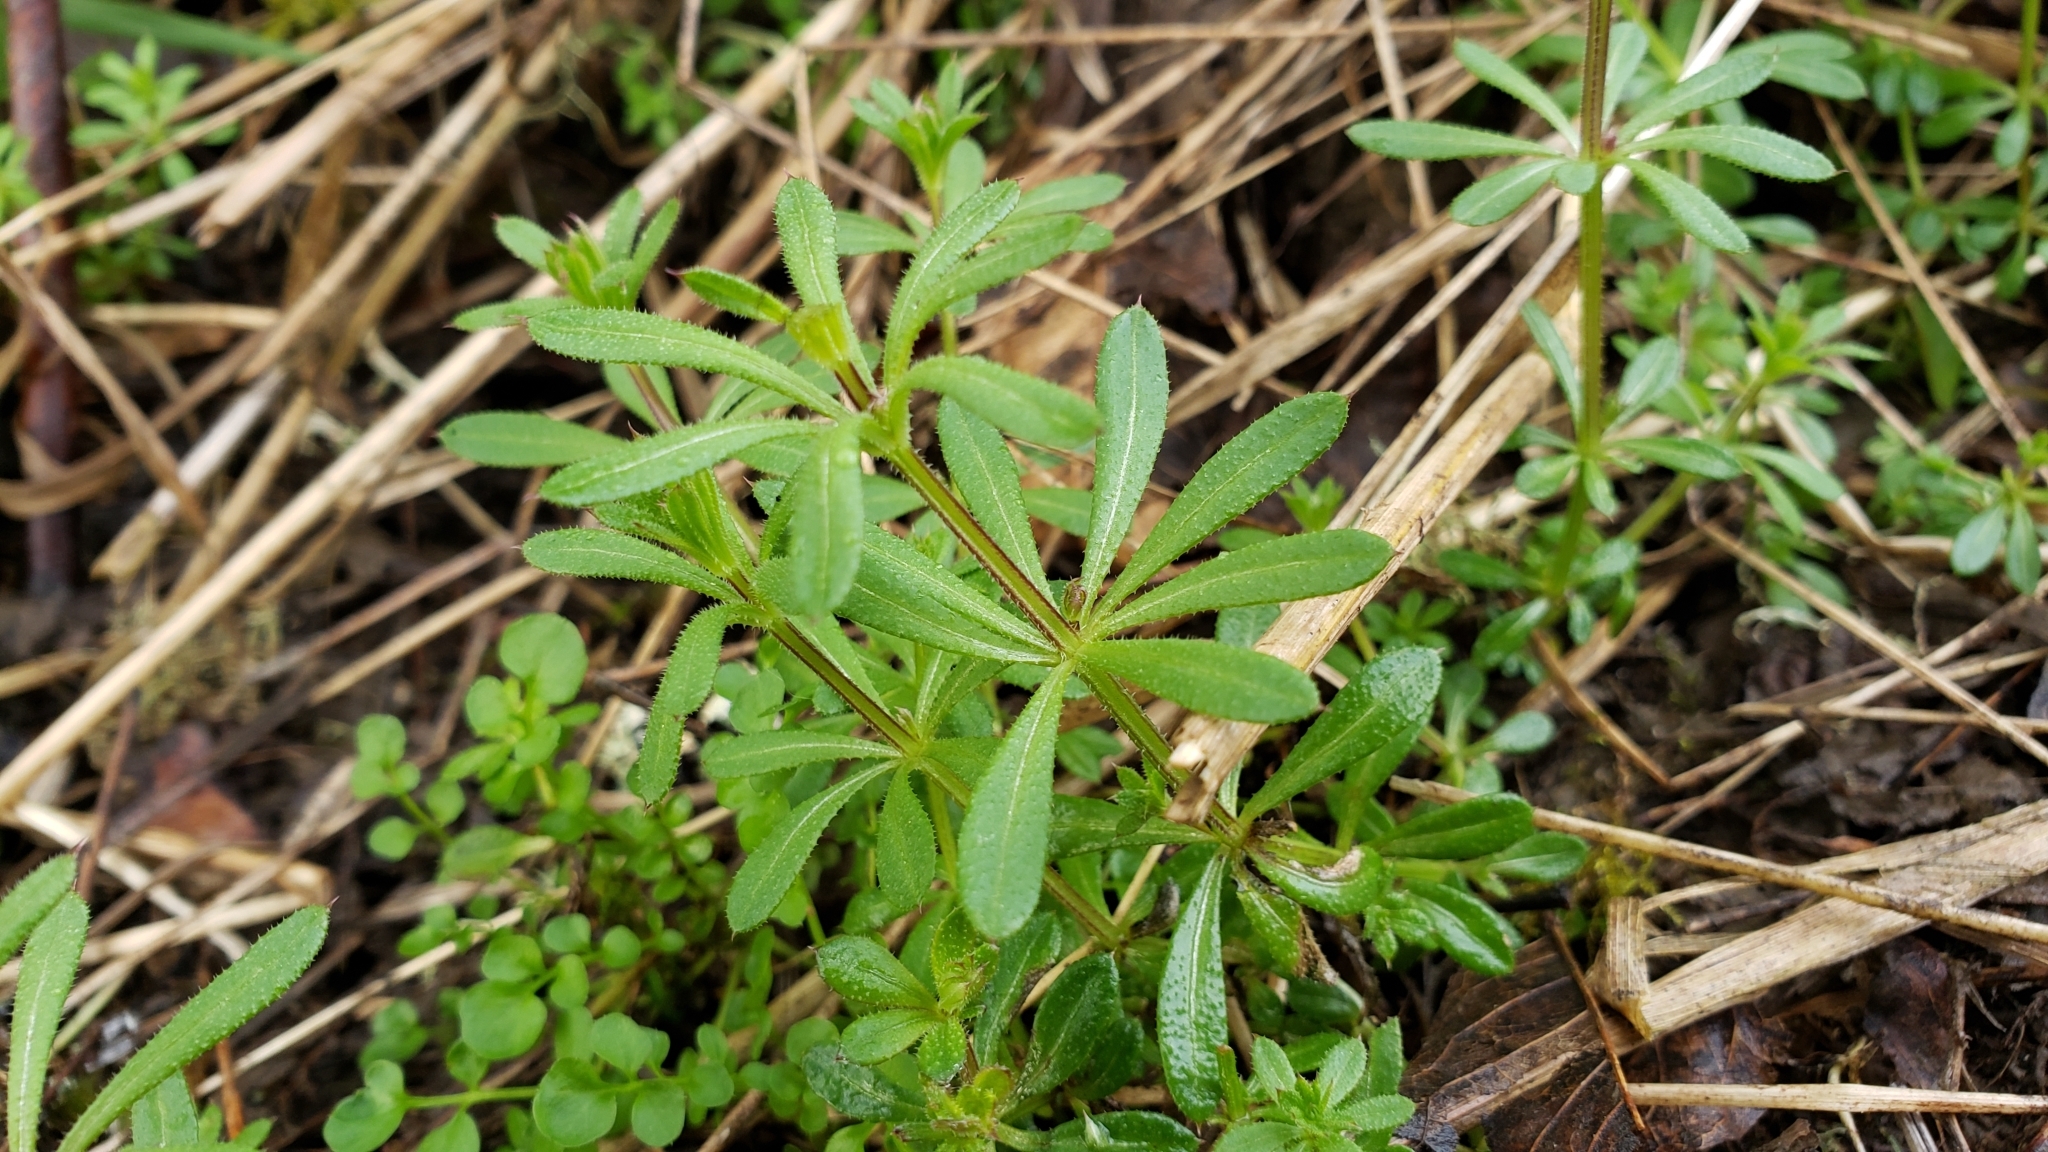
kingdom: Plantae
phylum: Tracheophyta
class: Magnoliopsida
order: Gentianales
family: Rubiaceae
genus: Galium
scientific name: Galium aparine
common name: Cleavers
